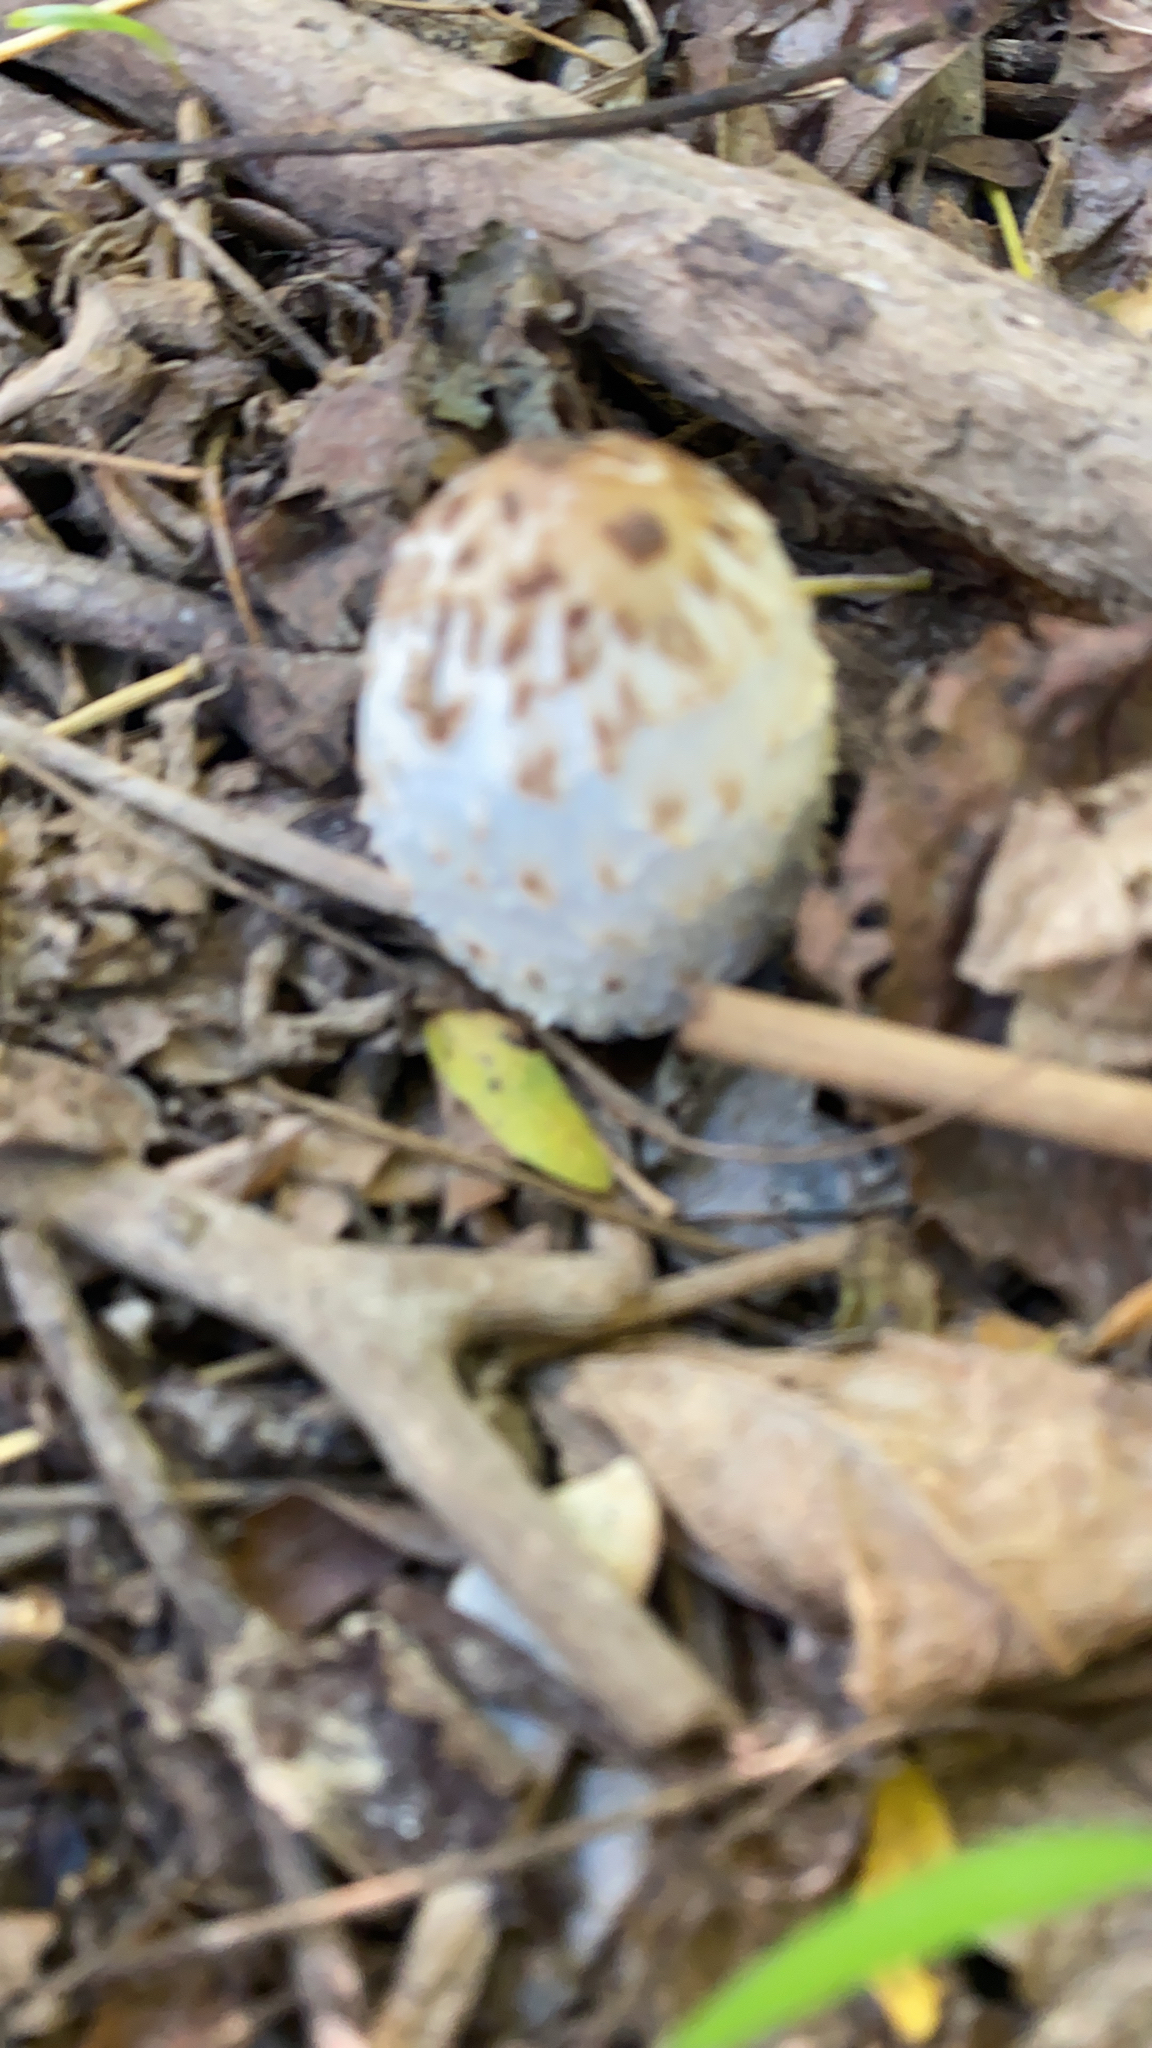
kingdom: Fungi
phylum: Basidiomycota
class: Agaricomycetes
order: Agaricales
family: Agaricaceae
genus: Coprinus
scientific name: Coprinus comatus
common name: Lawyer's wig
